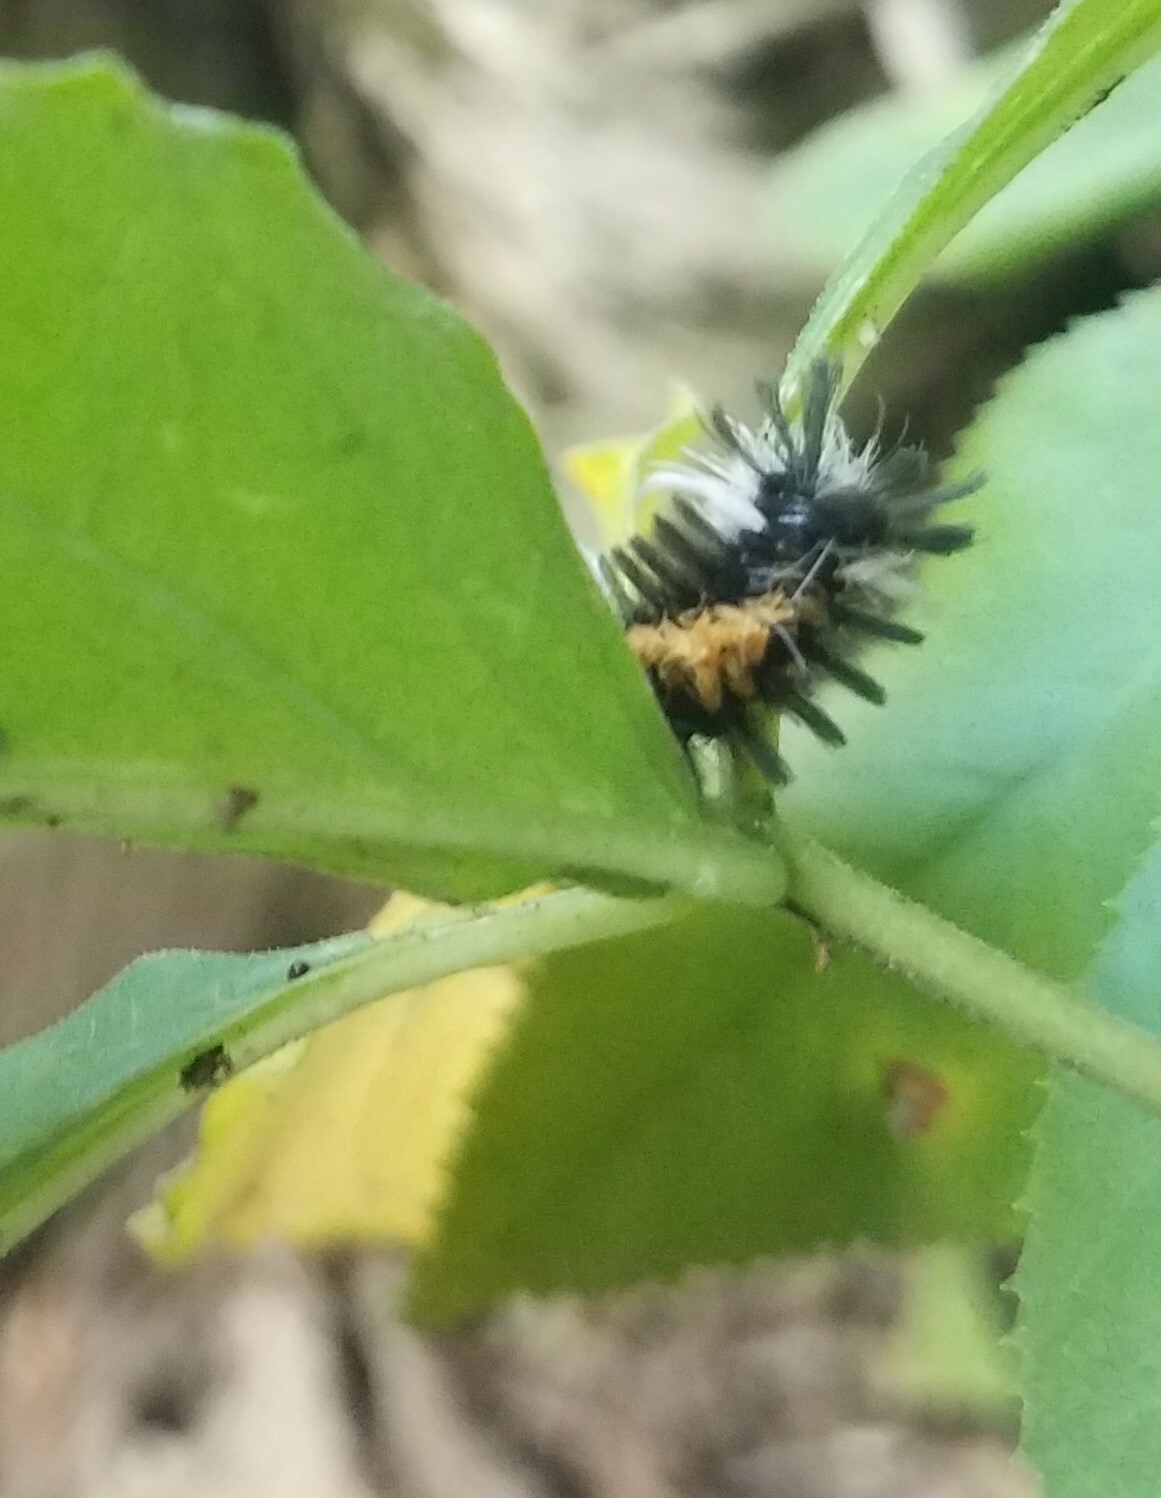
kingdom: Animalia
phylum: Arthropoda
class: Insecta
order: Lepidoptera
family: Erebidae
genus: Euchaetes
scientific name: Euchaetes egle
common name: Milkweed tussock moth
